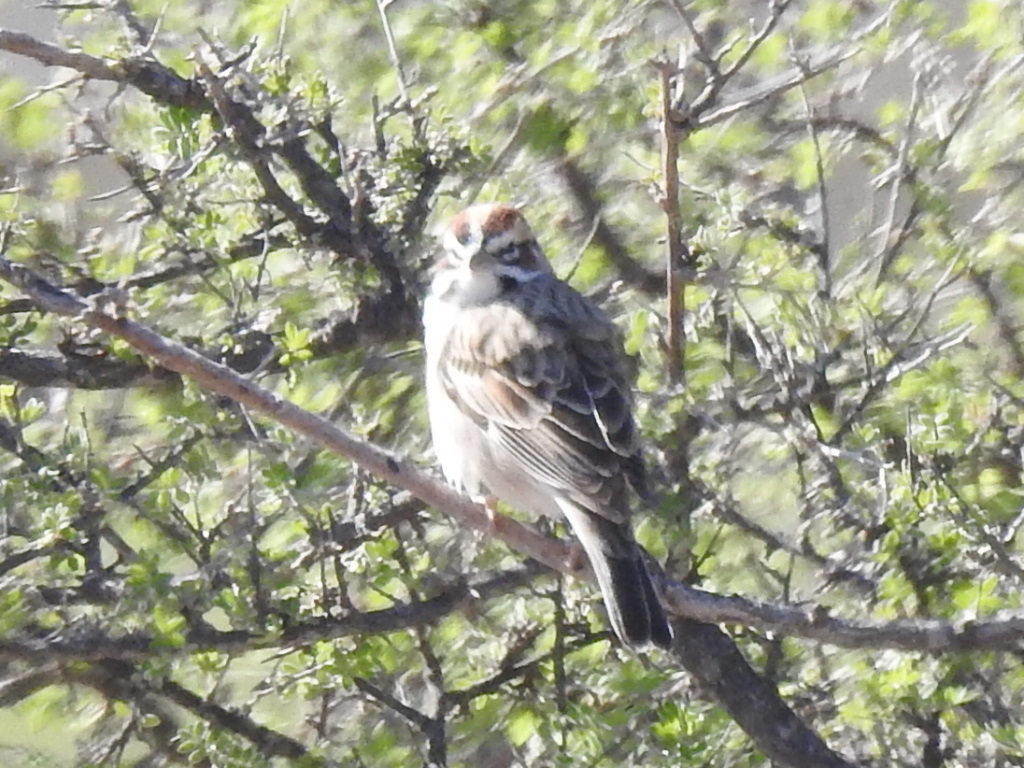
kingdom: Animalia
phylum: Chordata
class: Aves
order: Passeriformes
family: Passerellidae
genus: Chondestes
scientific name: Chondestes grammacus
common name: Lark sparrow
